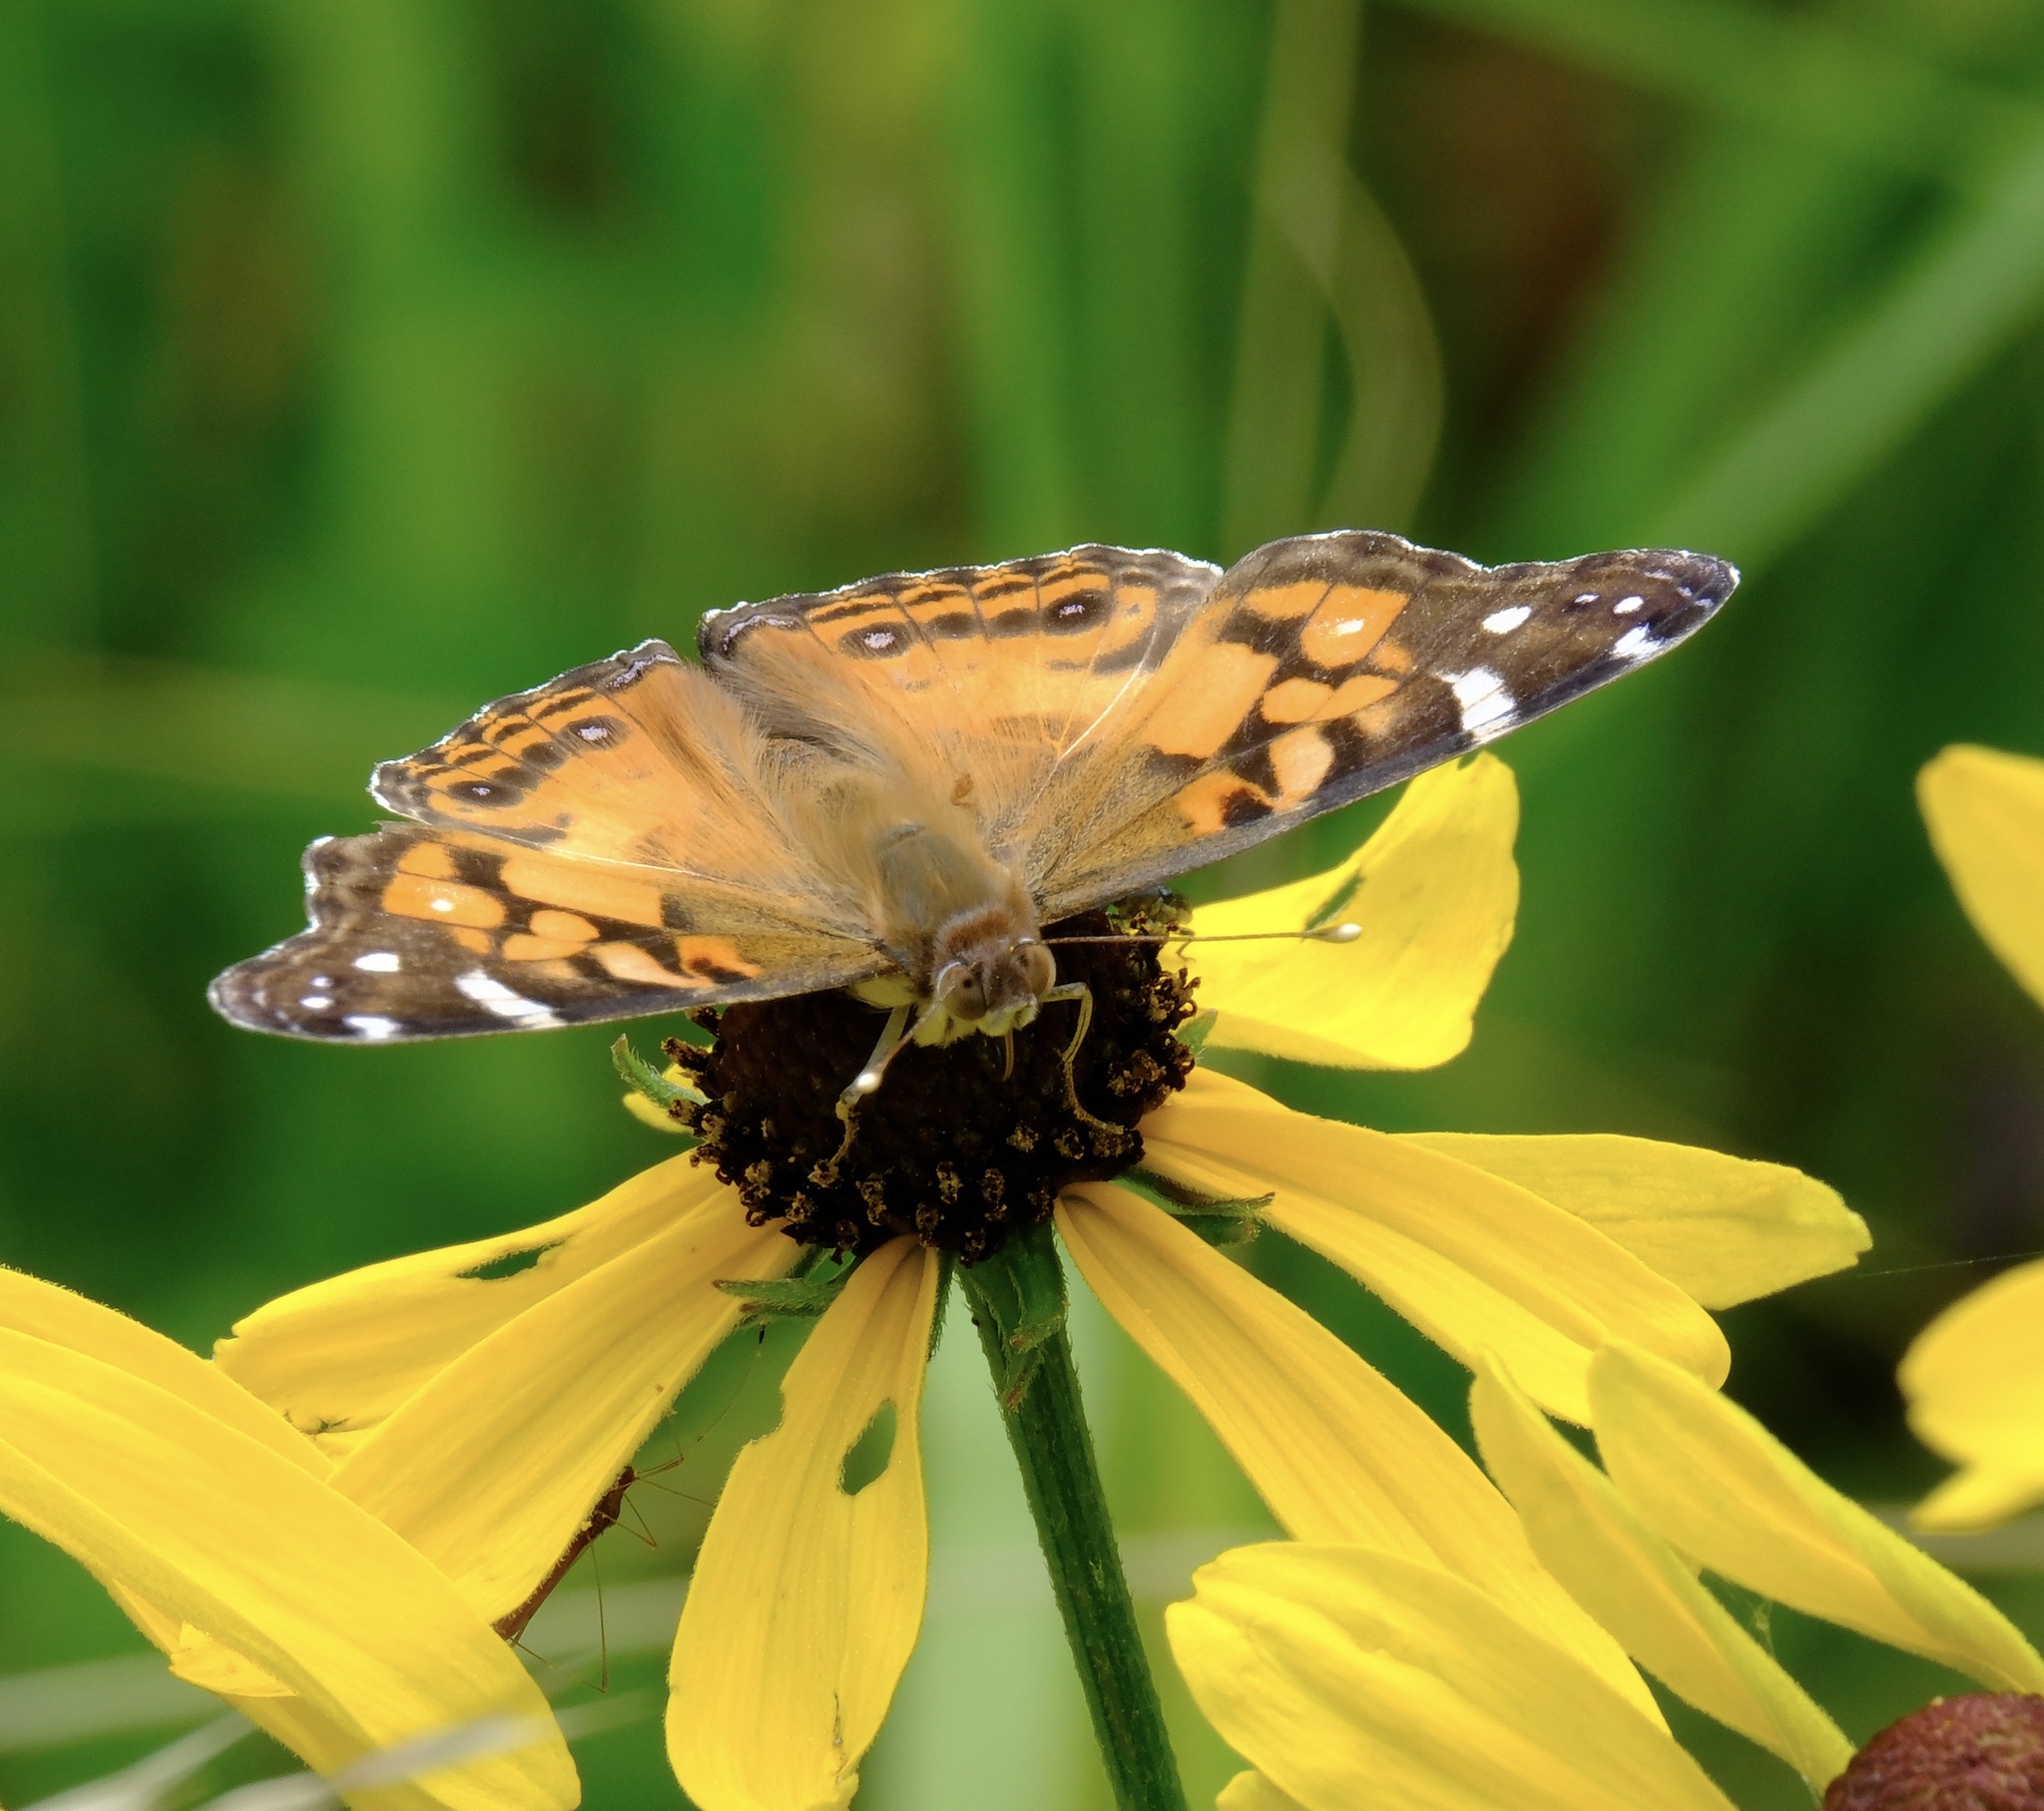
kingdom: Animalia
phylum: Arthropoda
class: Insecta
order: Lepidoptera
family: Nymphalidae
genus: Vanessa
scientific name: Vanessa virginiensis
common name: American lady
